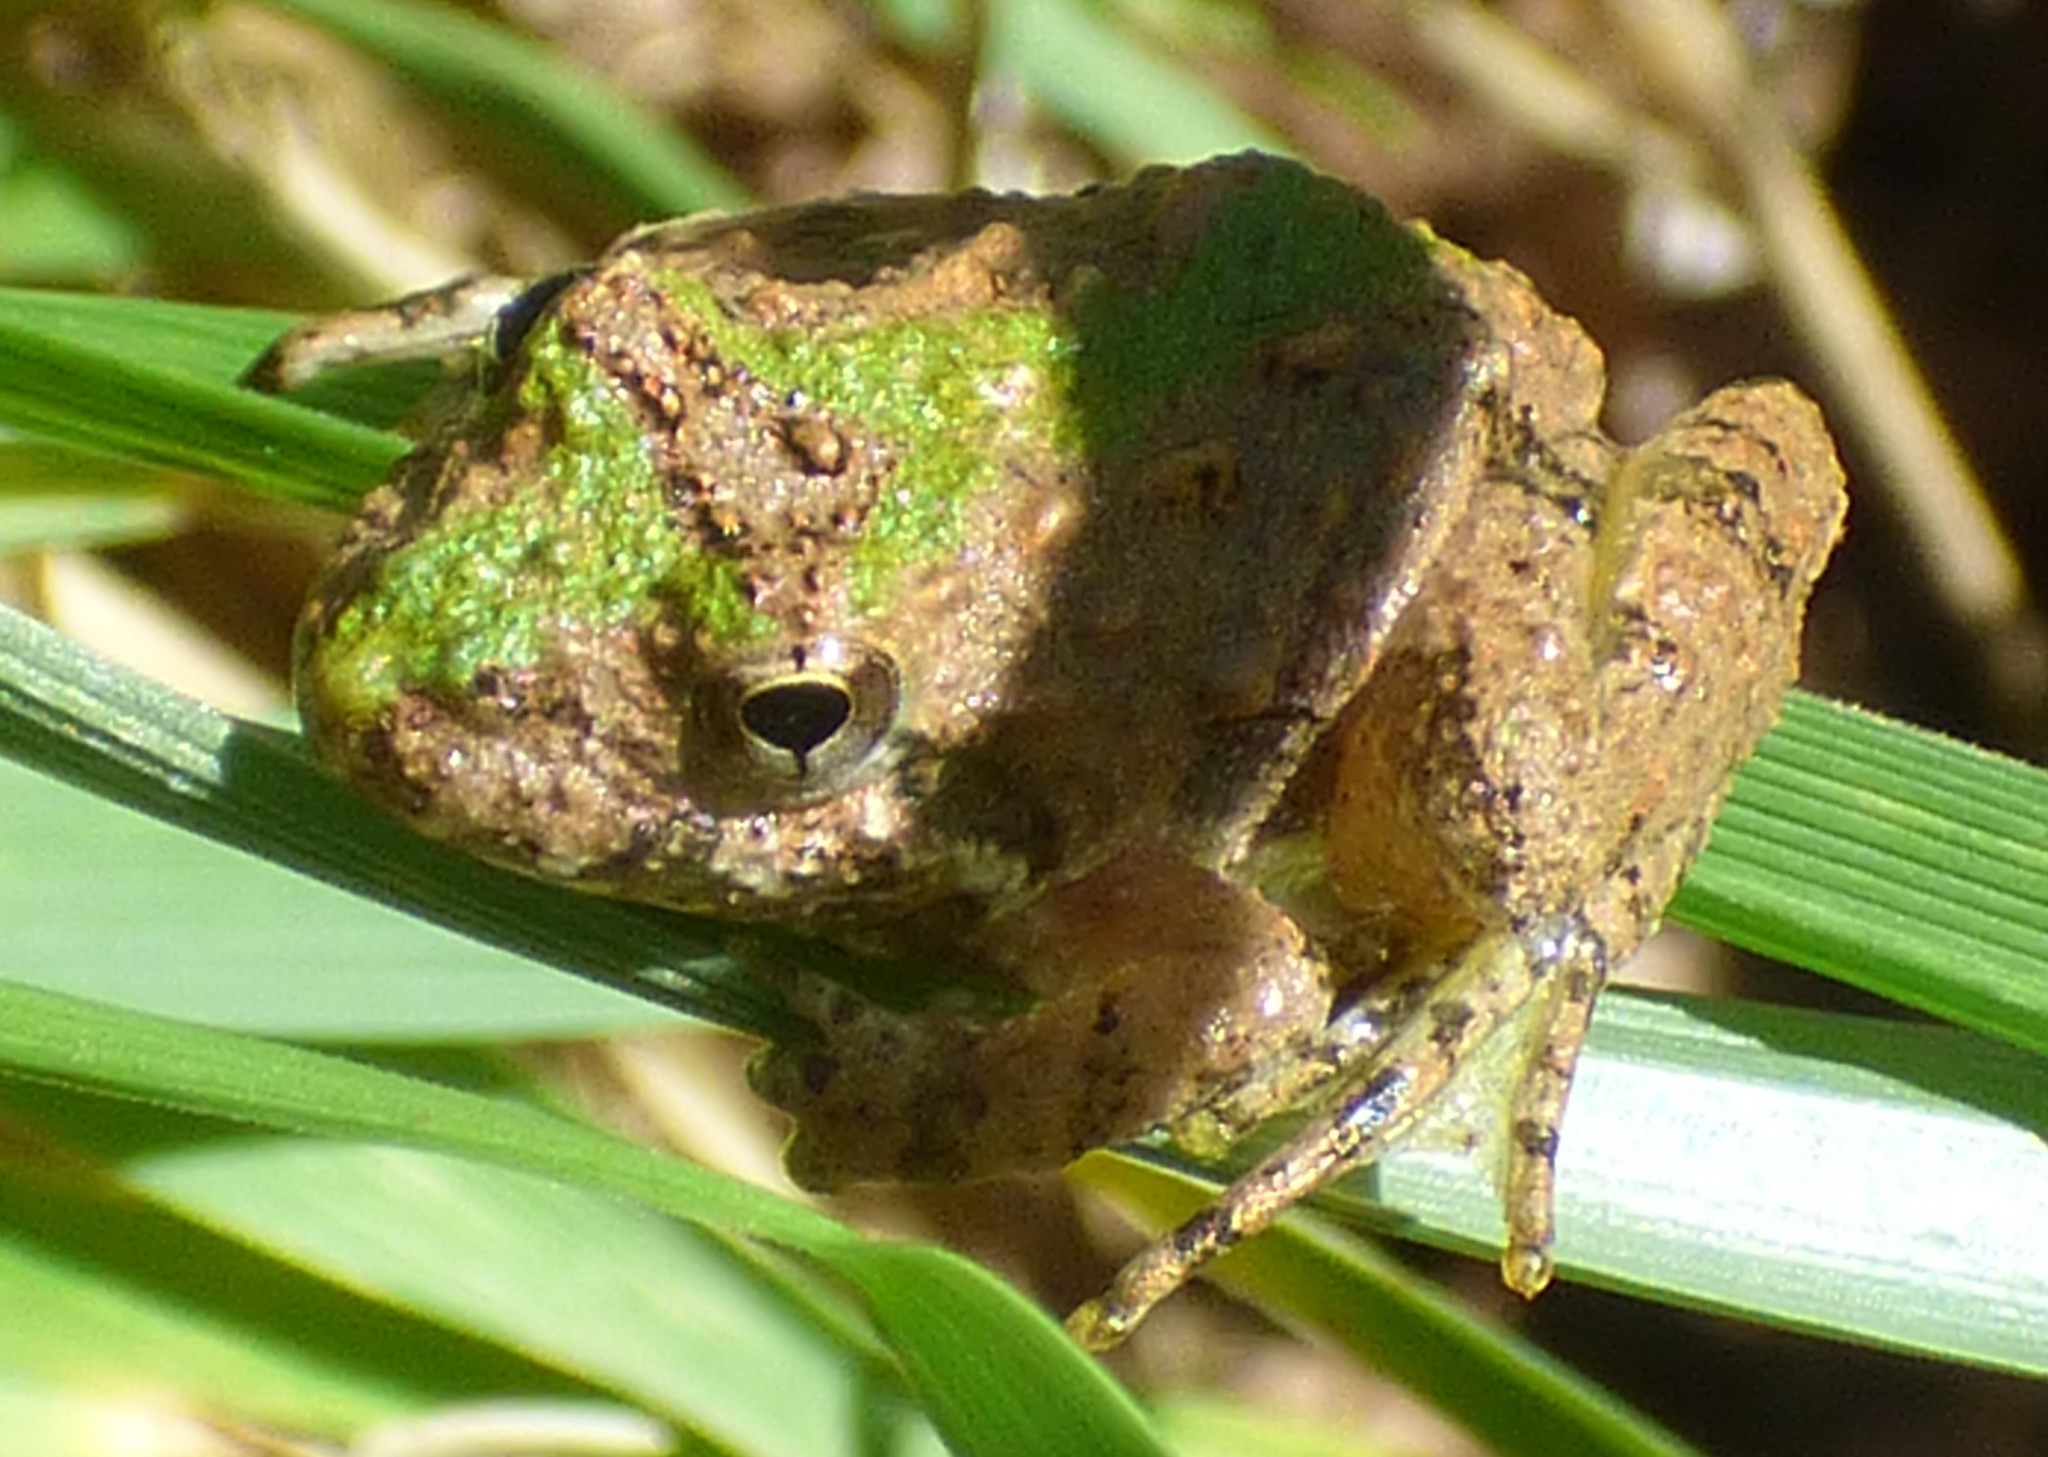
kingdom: Animalia
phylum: Chordata
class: Amphibia
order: Anura
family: Hylidae
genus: Acris
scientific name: Acris crepitans
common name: Northern cricket frog
